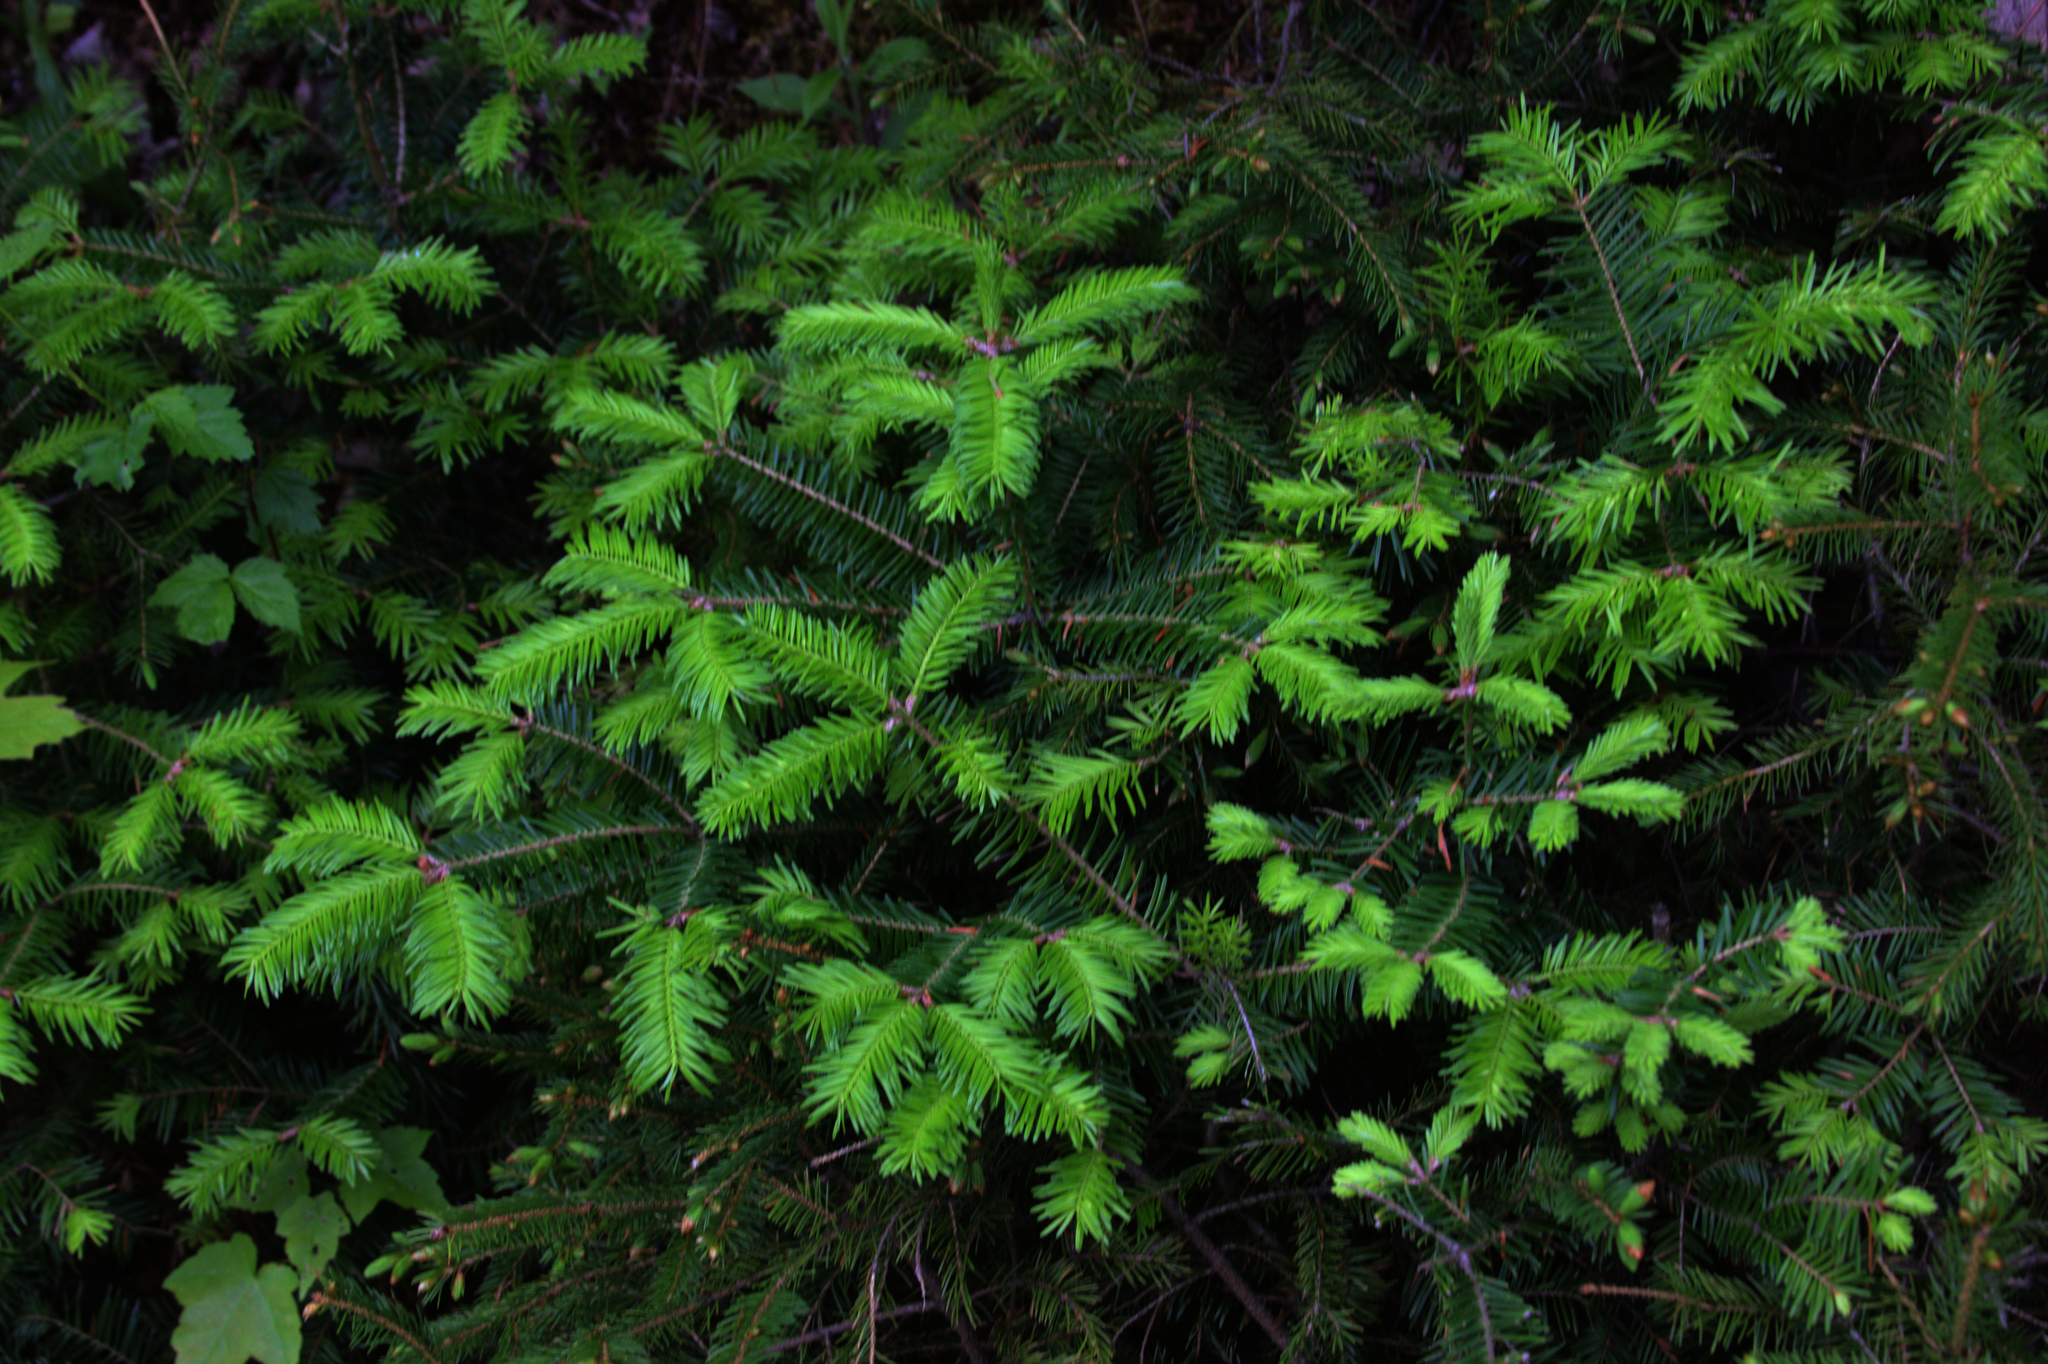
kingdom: Plantae
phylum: Tracheophyta
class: Pinopsida
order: Pinales
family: Pinaceae
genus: Abies
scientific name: Abies balsamea
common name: Balsam fir
